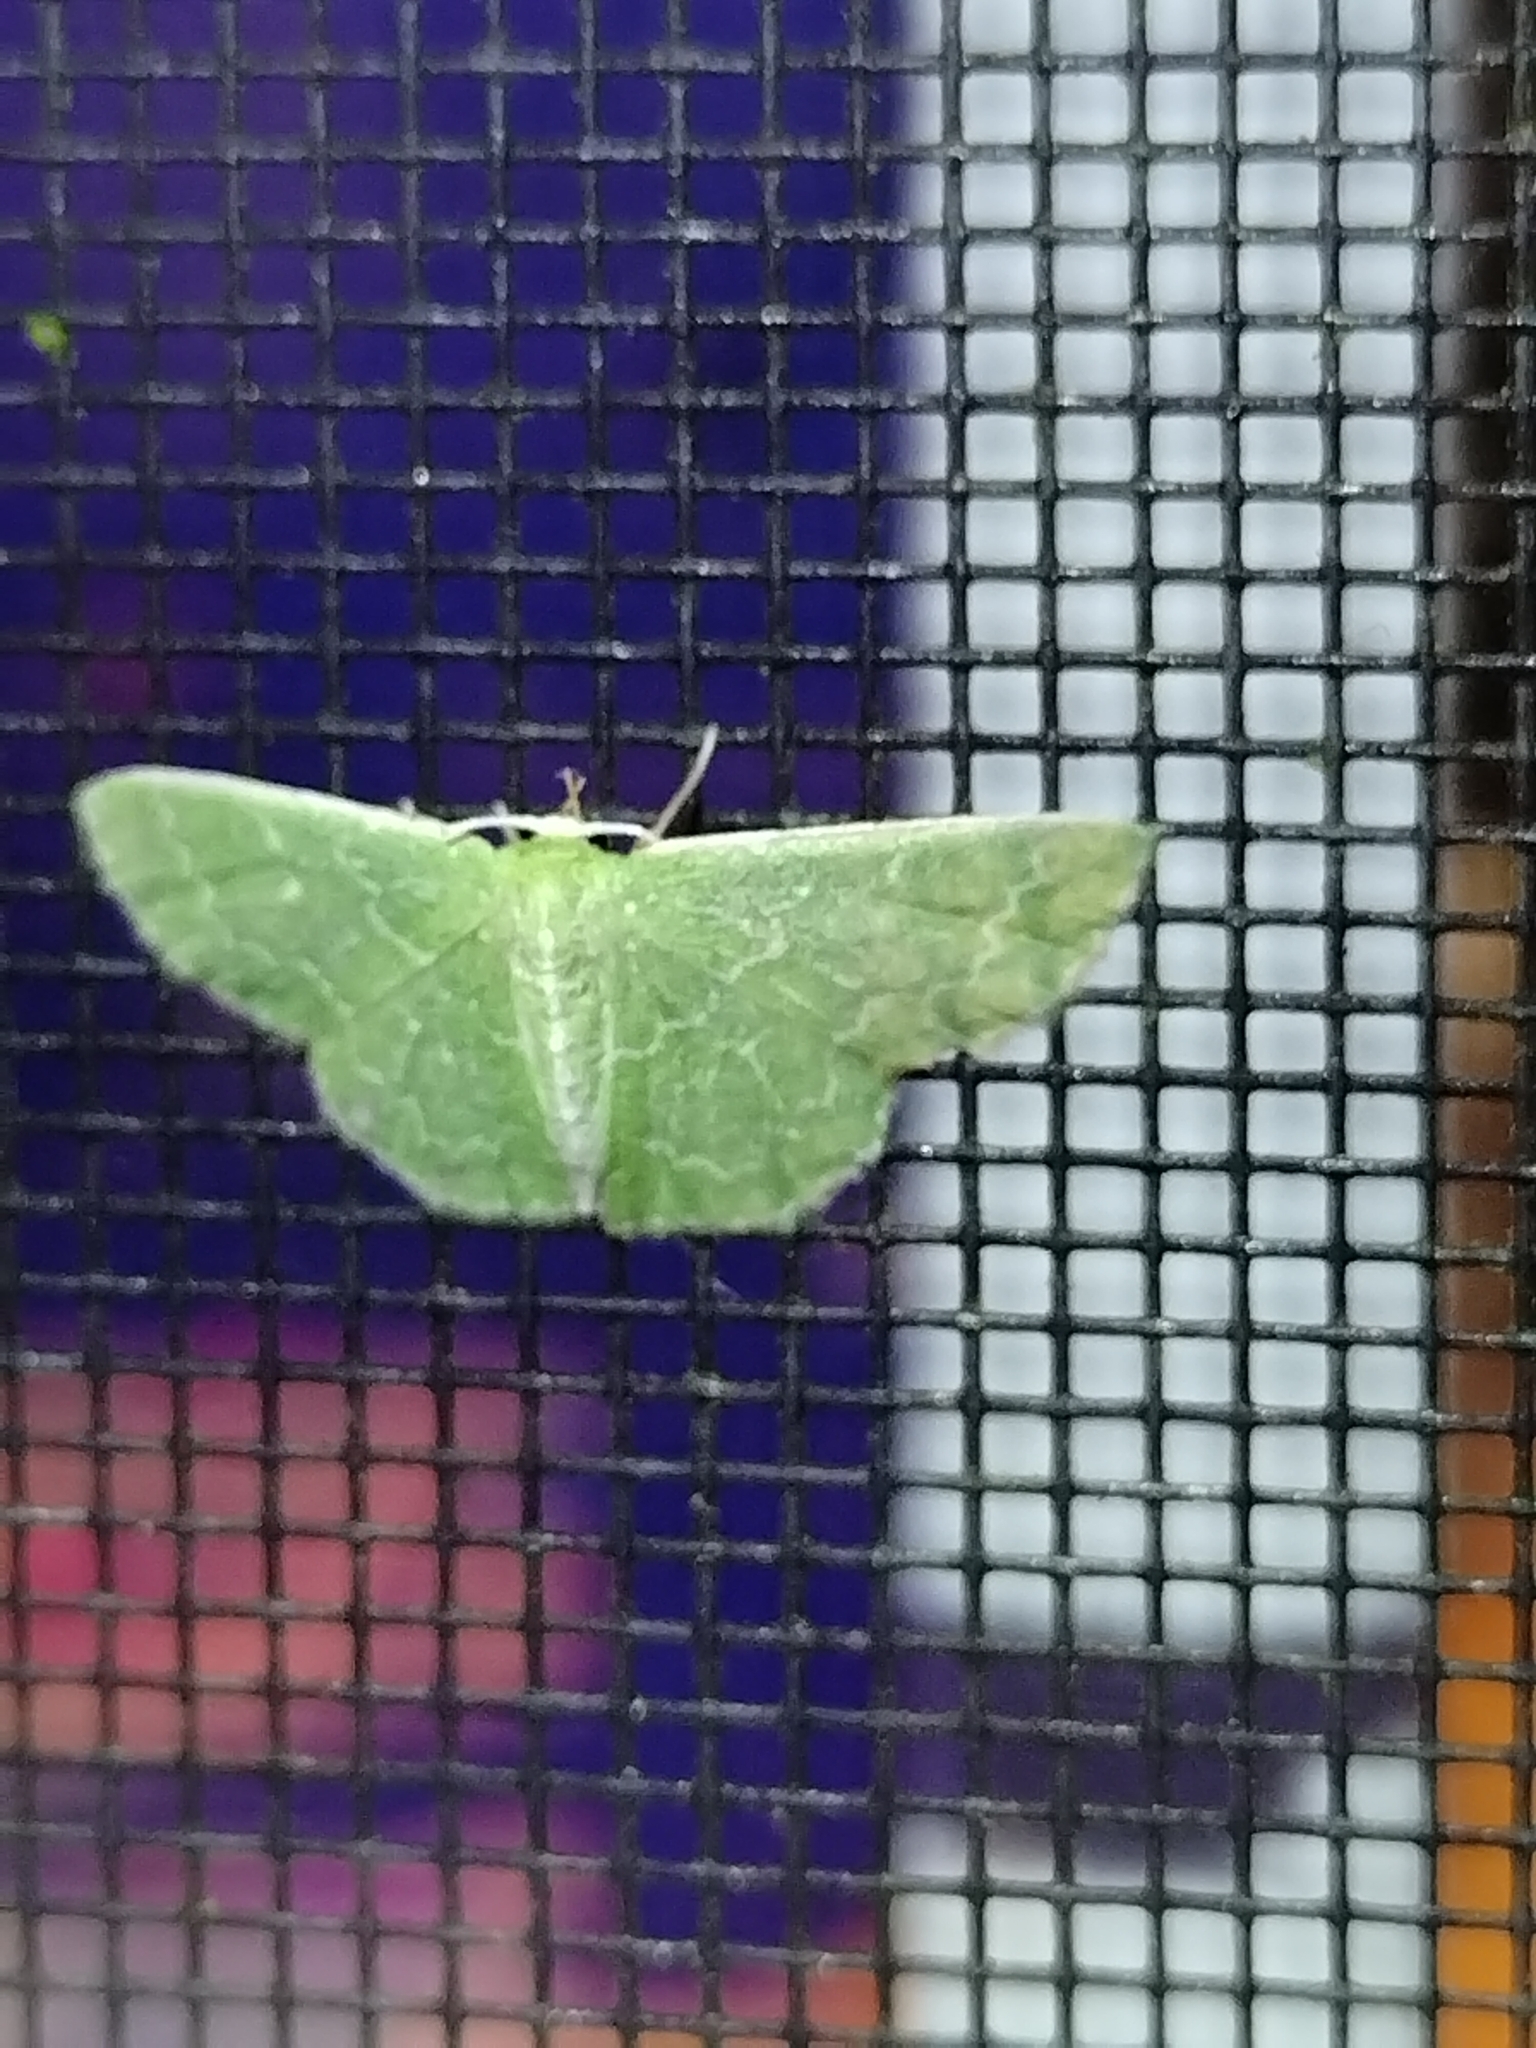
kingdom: Animalia
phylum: Arthropoda
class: Insecta
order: Lepidoptera
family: Geometridae
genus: Synchlora
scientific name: Synchlora frondaria
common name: Southern emerald
